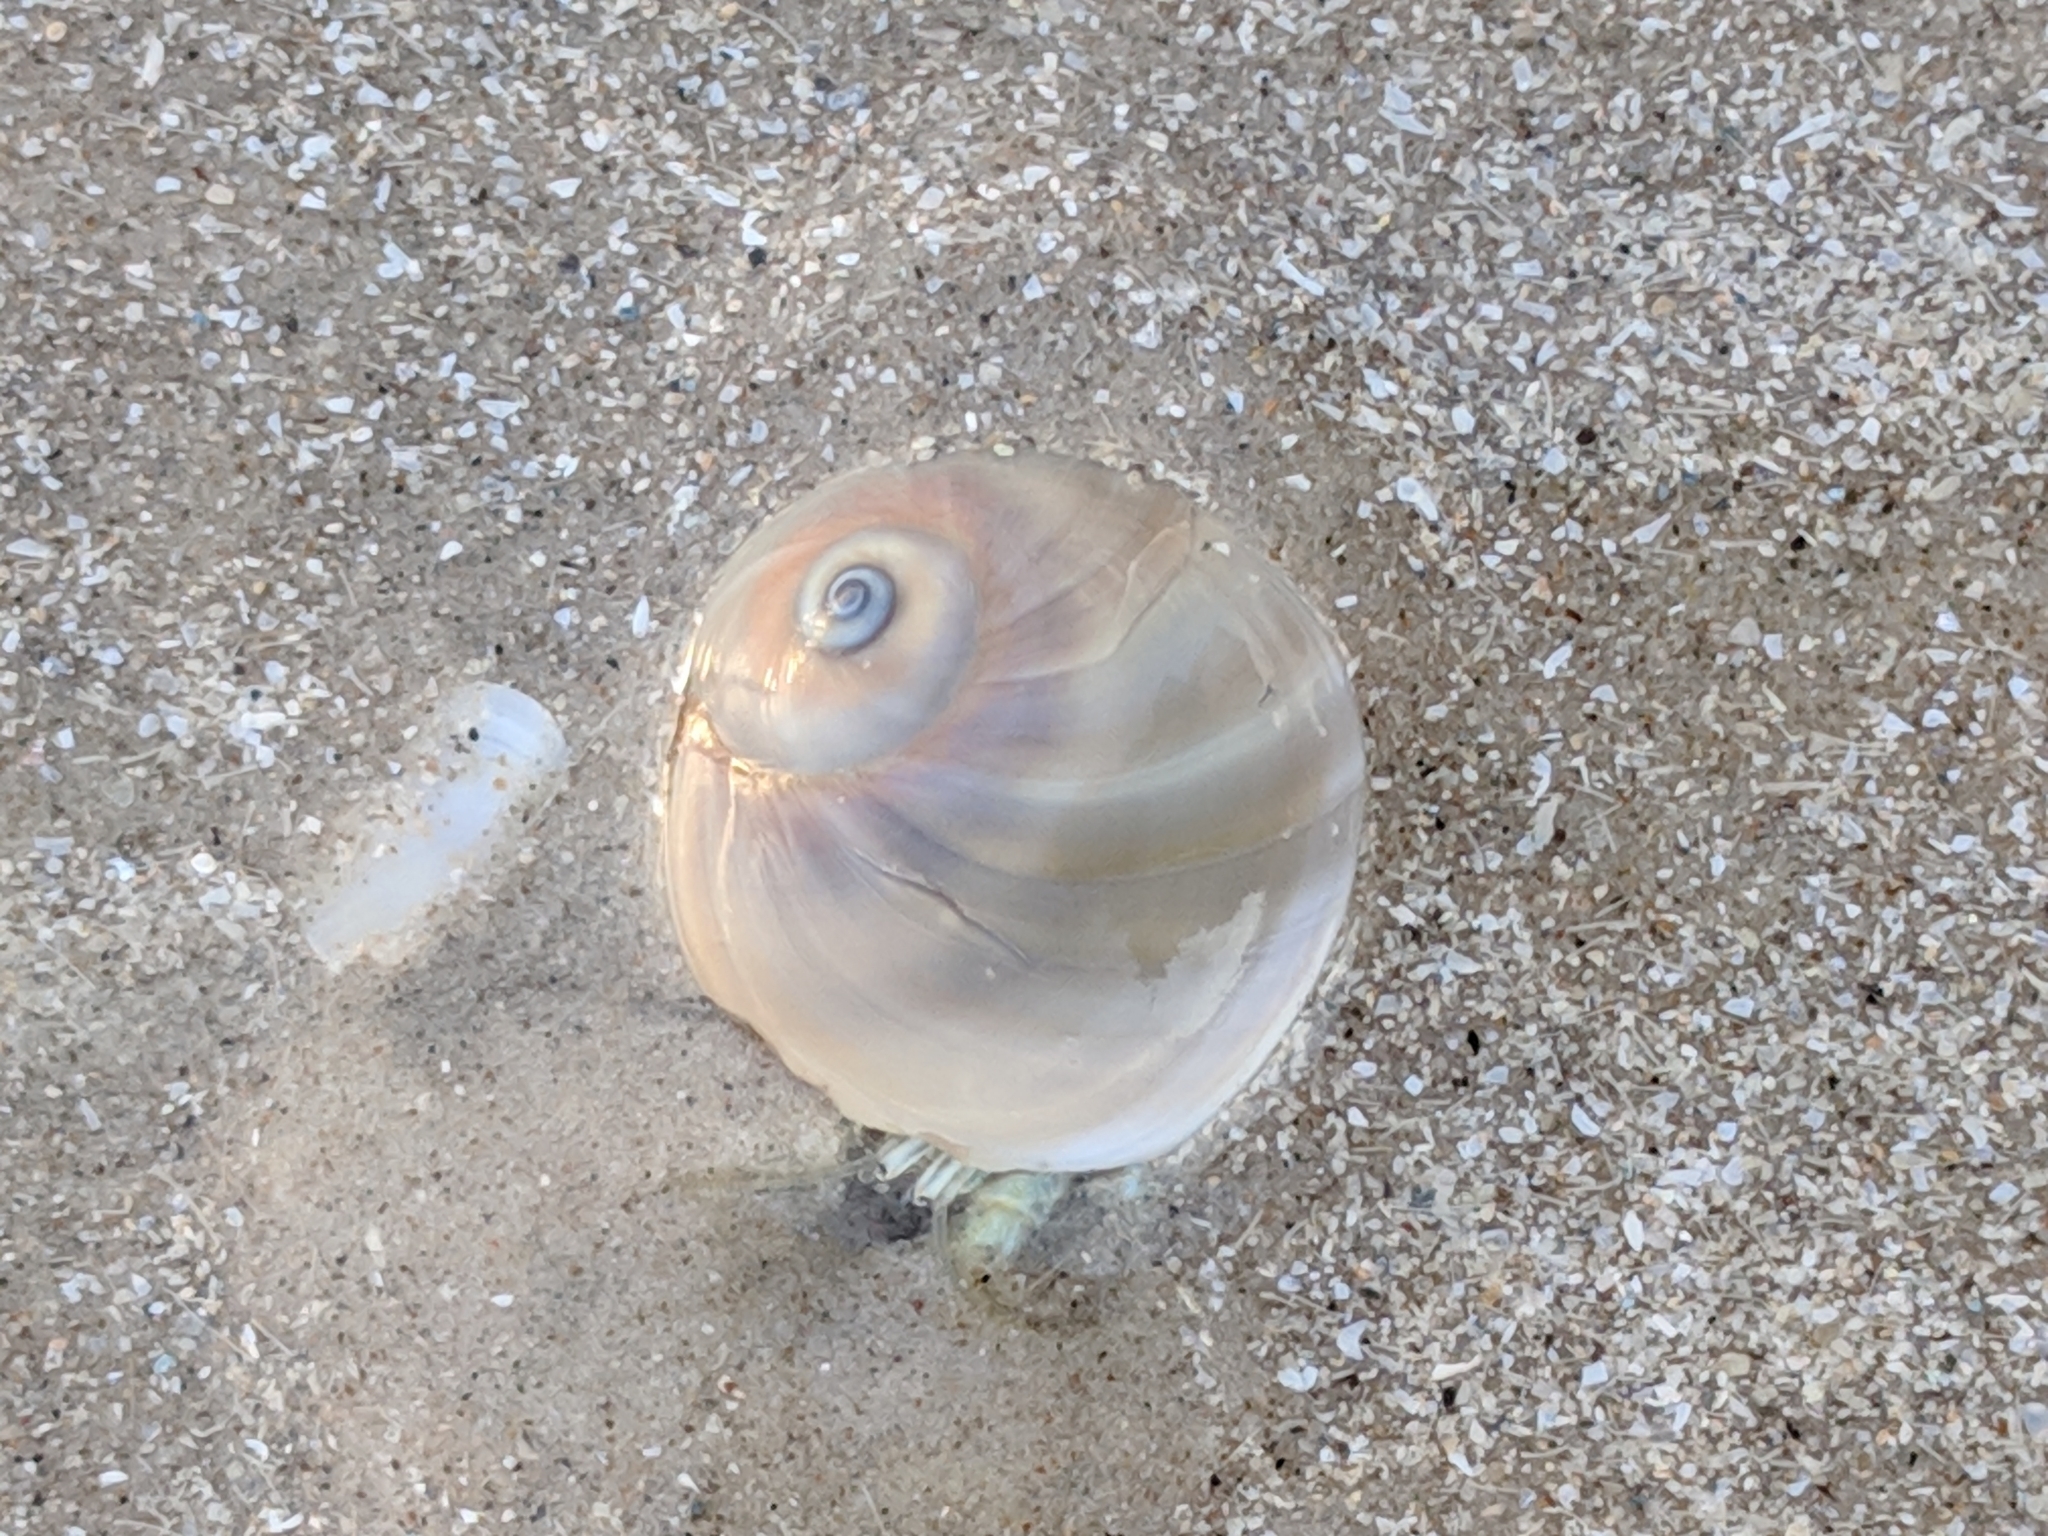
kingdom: Animalia
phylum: Mollusca
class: Gastropoda
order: Littorinimorpha
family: Naticidae
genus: Neverita
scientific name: Neverita duplicata
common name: Lobed moonsnail
